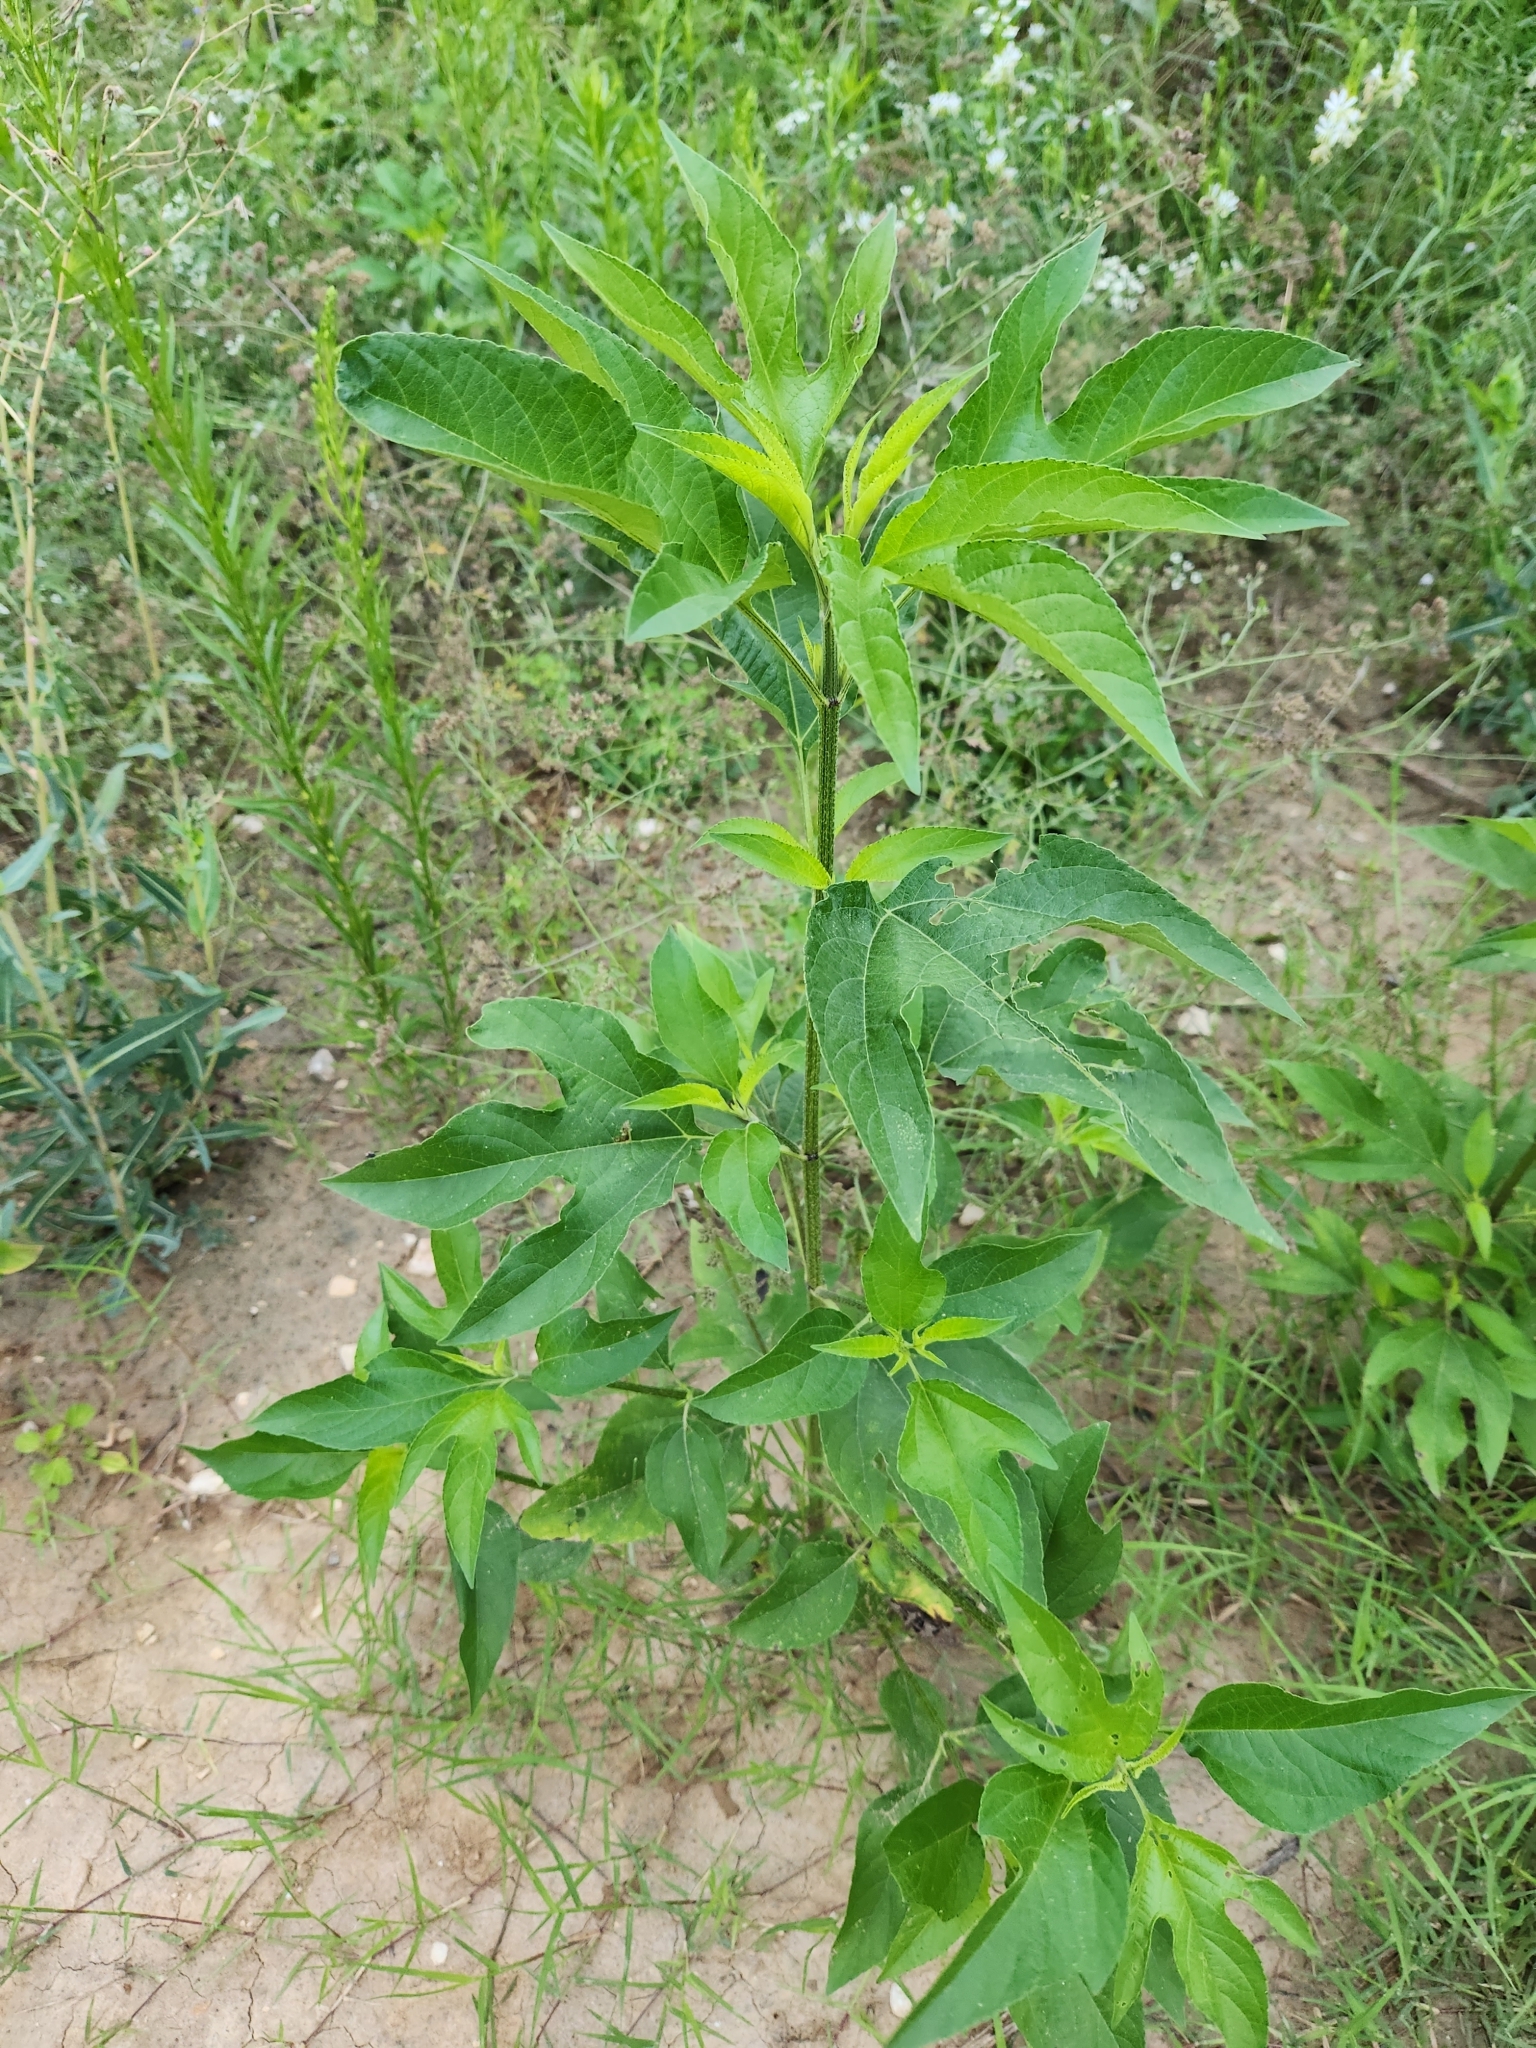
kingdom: Plantae
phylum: Tracheophyta
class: Magnoliopsida
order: Asterales
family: Asteraceae
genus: Ambrosia
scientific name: Ambrosia trifida
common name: Giant ragweed
